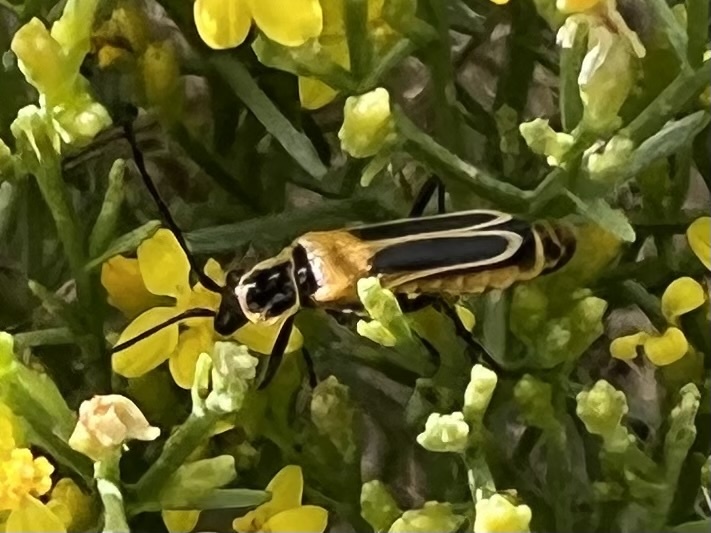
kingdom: Animalia
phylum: Arthropoda
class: Insecta
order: Coleoptera
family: Cantharidae
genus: Chauliognathus
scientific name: Chauliognathus lewisi
